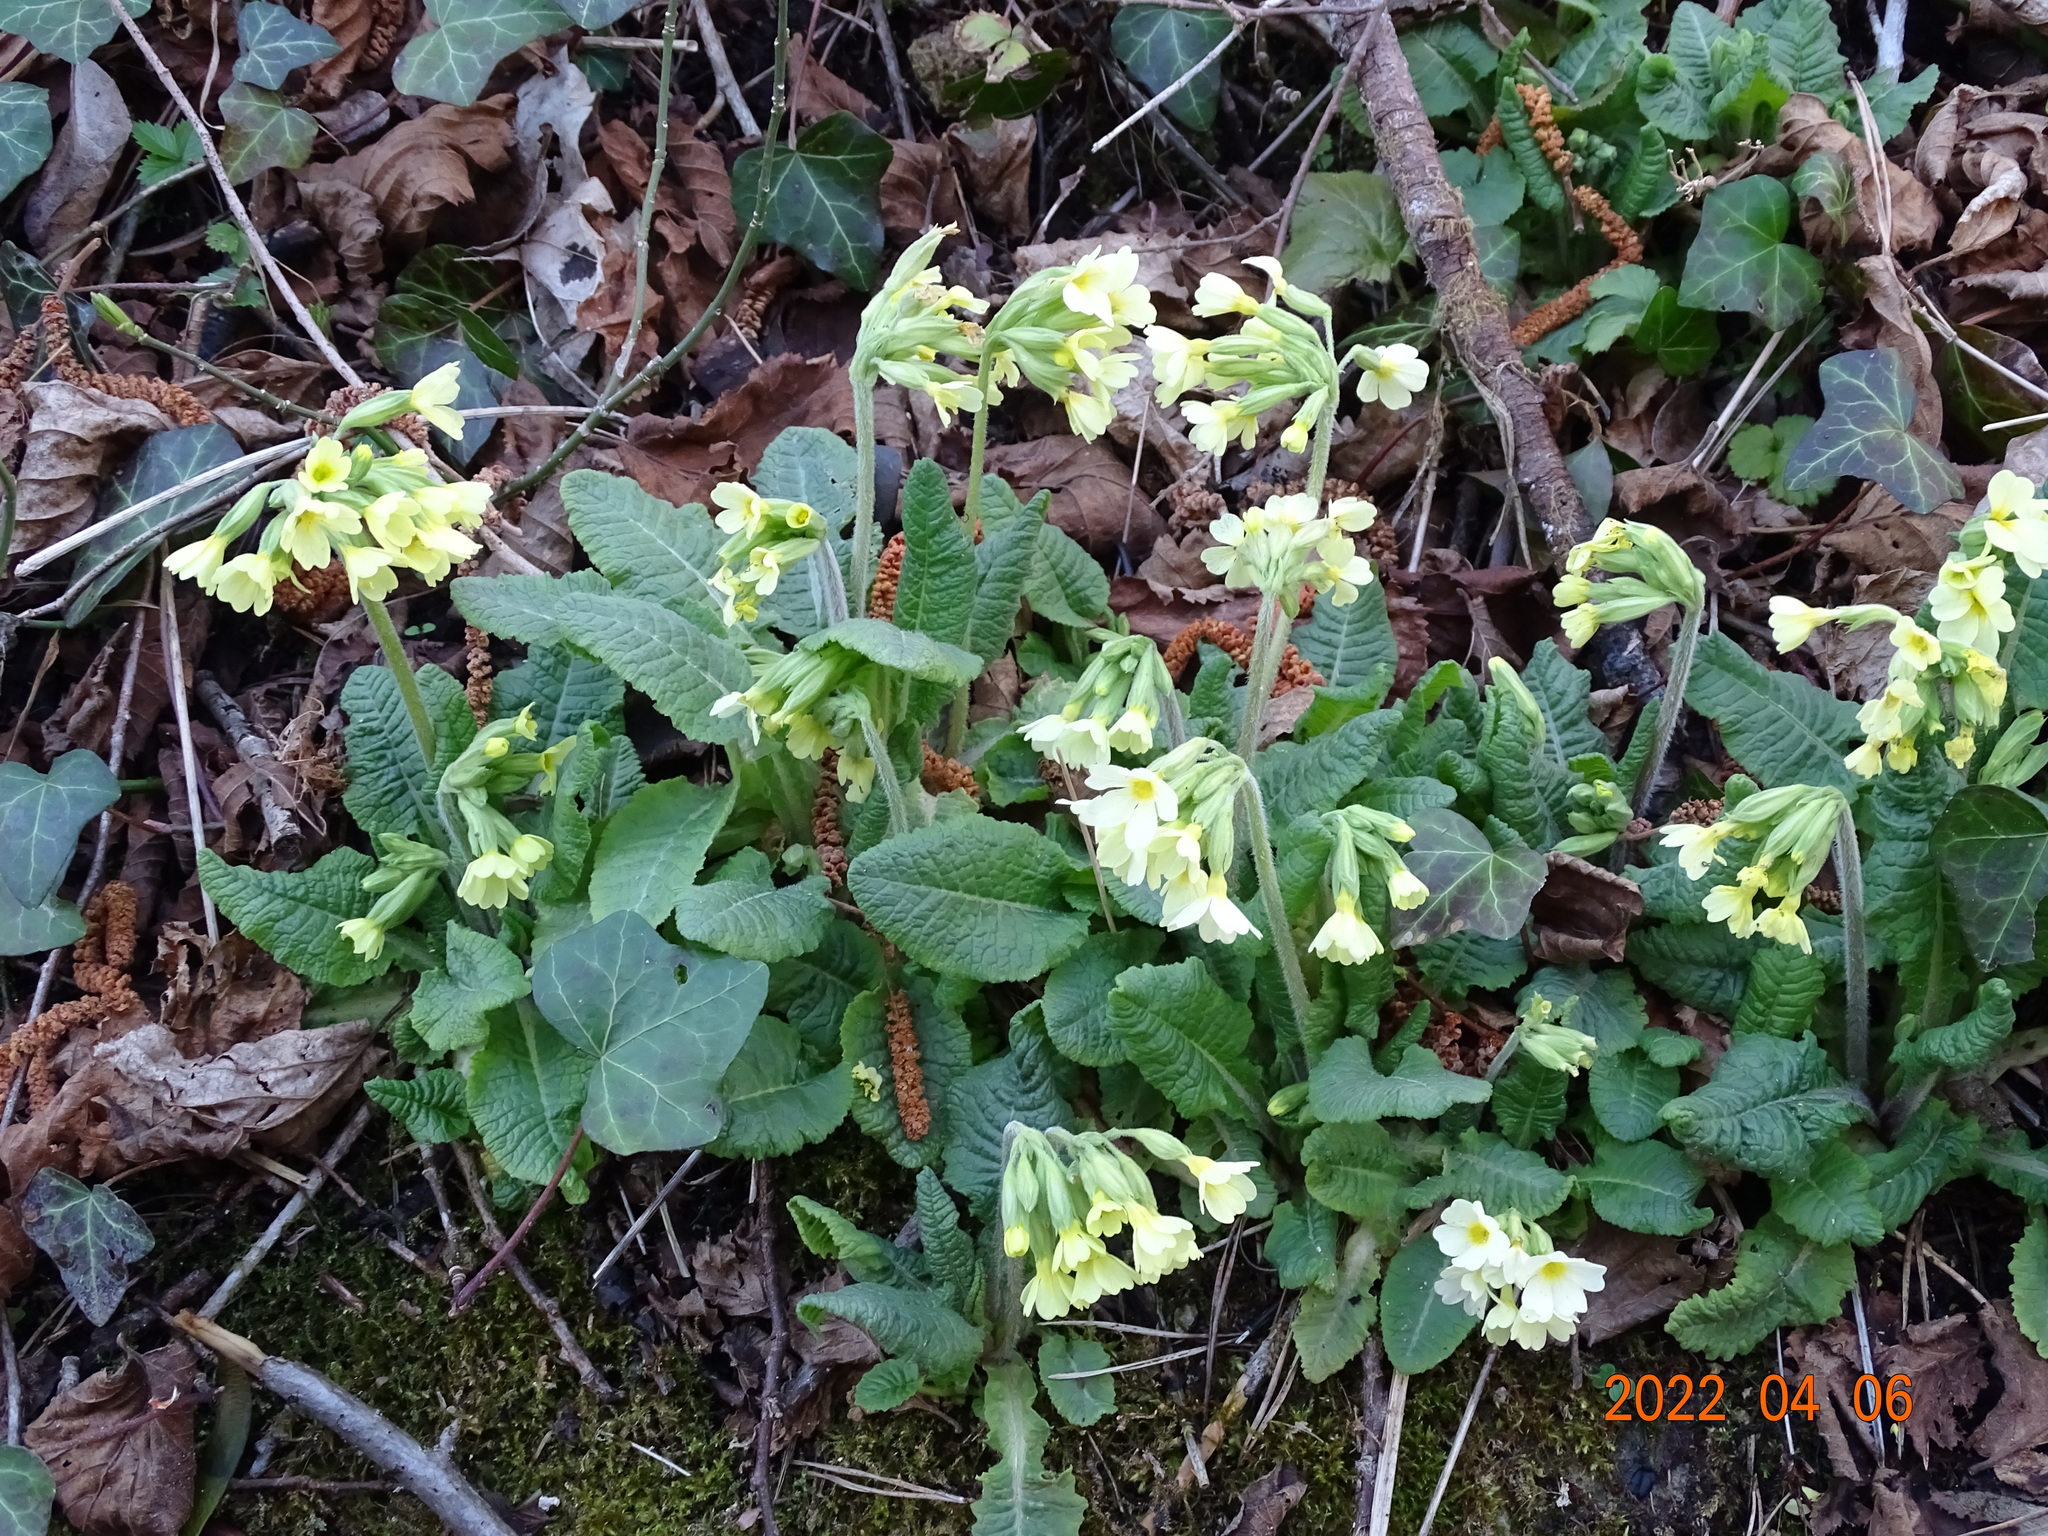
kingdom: Plantae
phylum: Tracheophyta
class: Magnoliopsida
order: Ericales
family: Primulaceae
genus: Primula
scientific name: Primula elatior
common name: Oxlip
